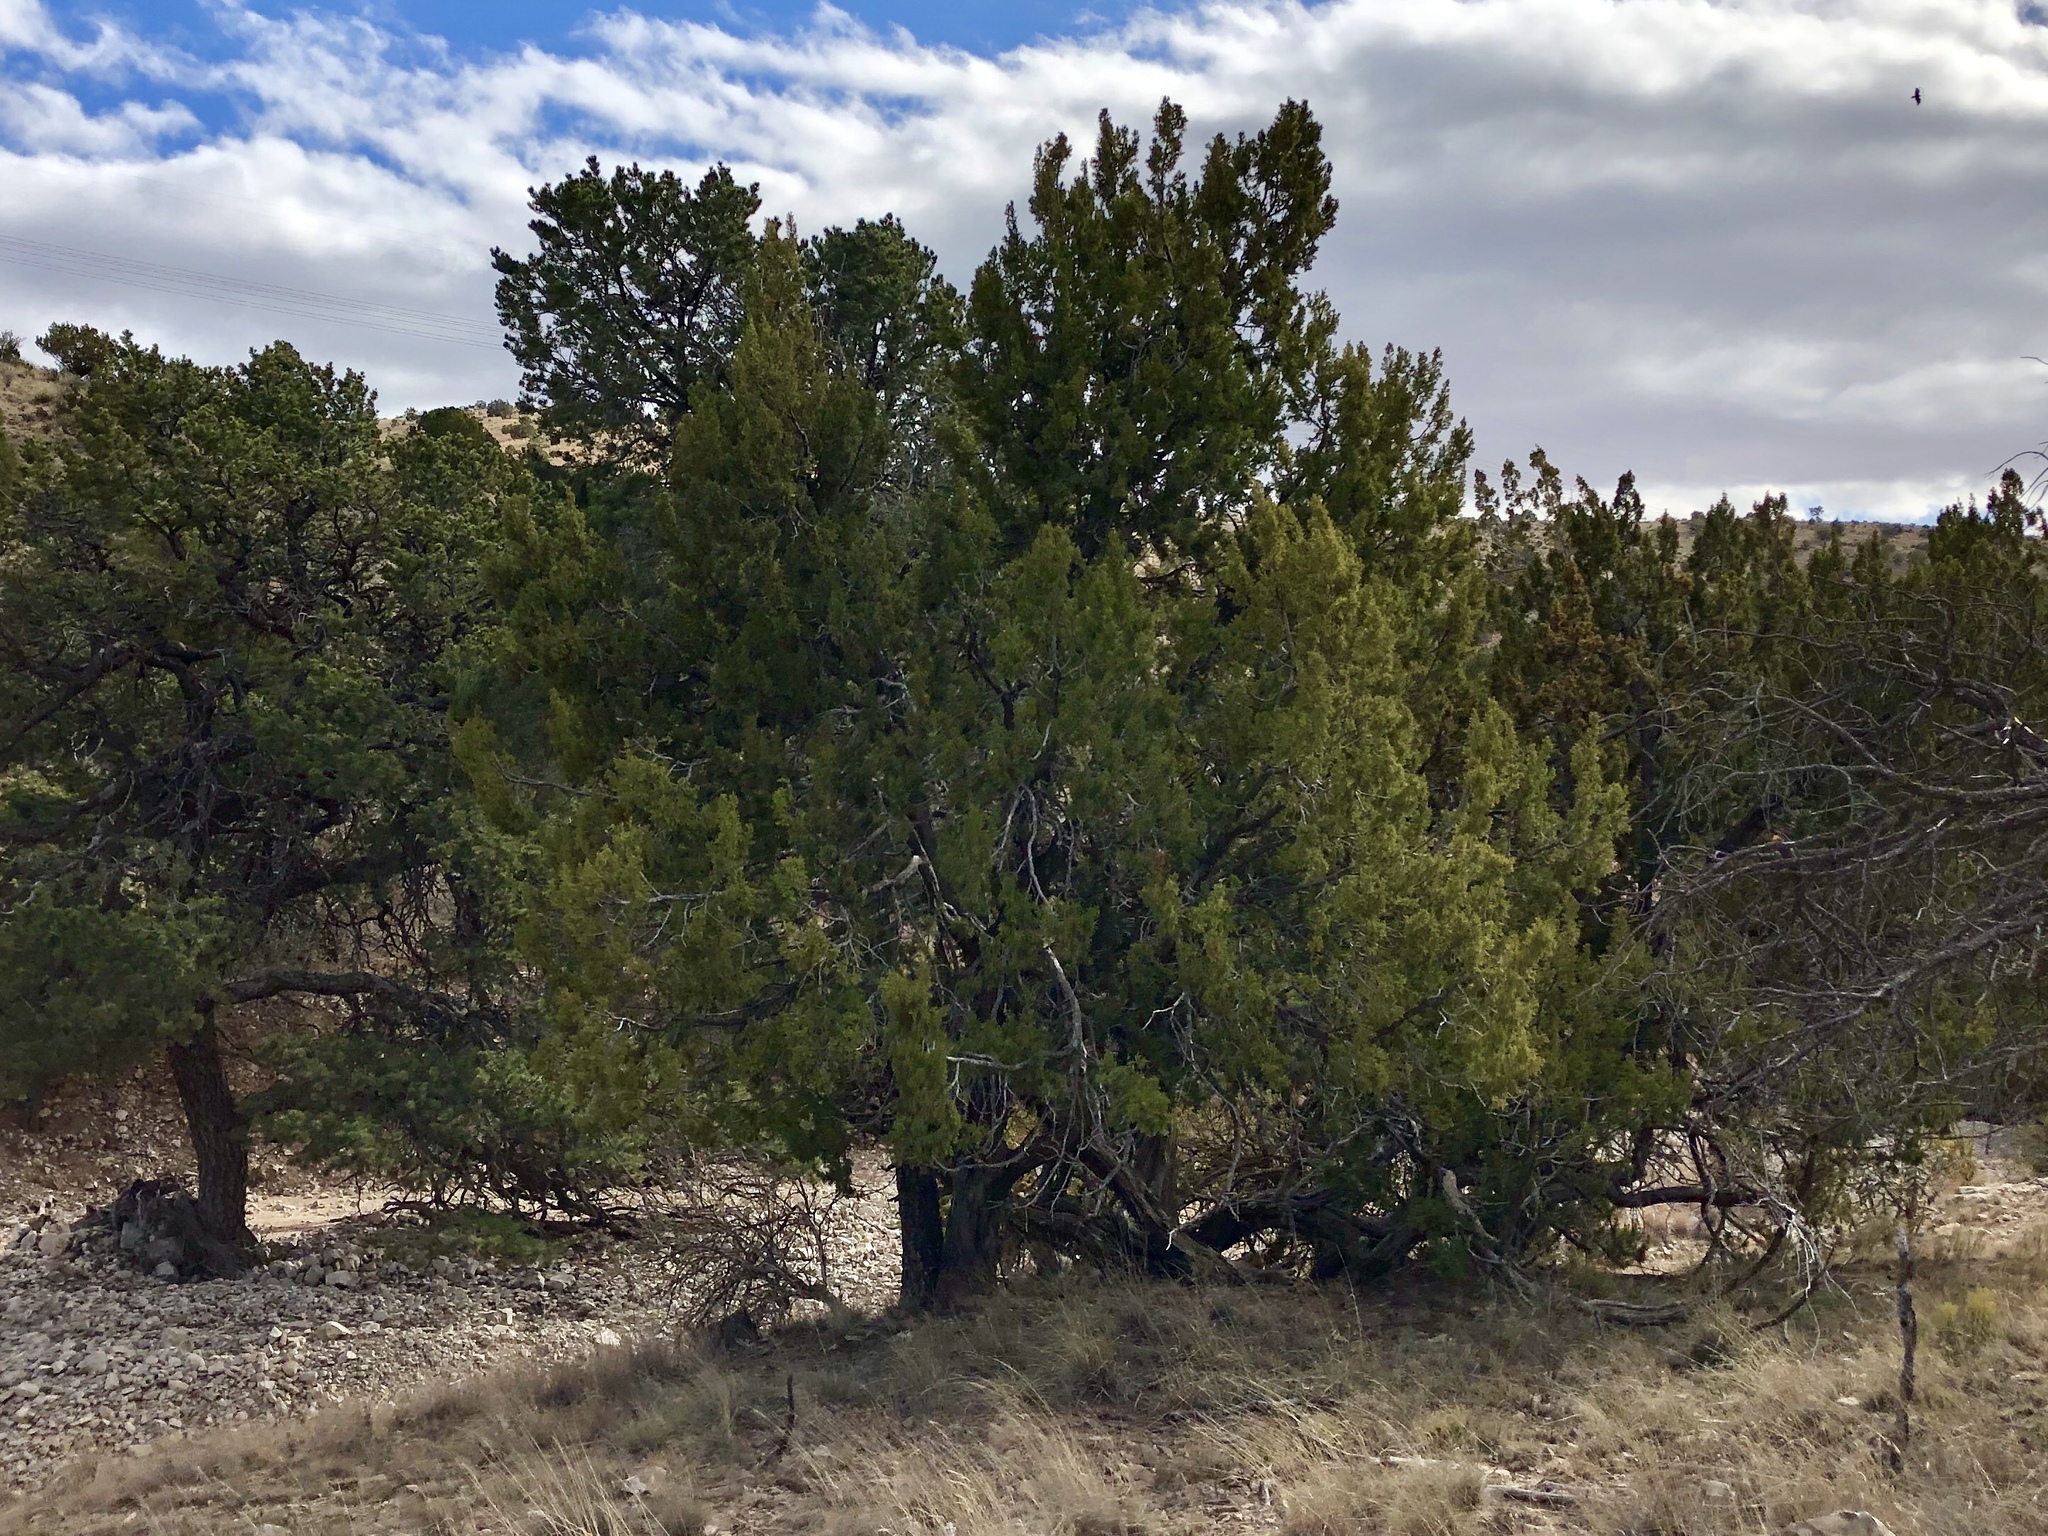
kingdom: Plantae
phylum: Tracheophyta
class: Pinopsida
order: Pinales
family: Cupressaceae
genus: Juniperus
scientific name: Juniperus deppeana
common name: Alligator juniper
